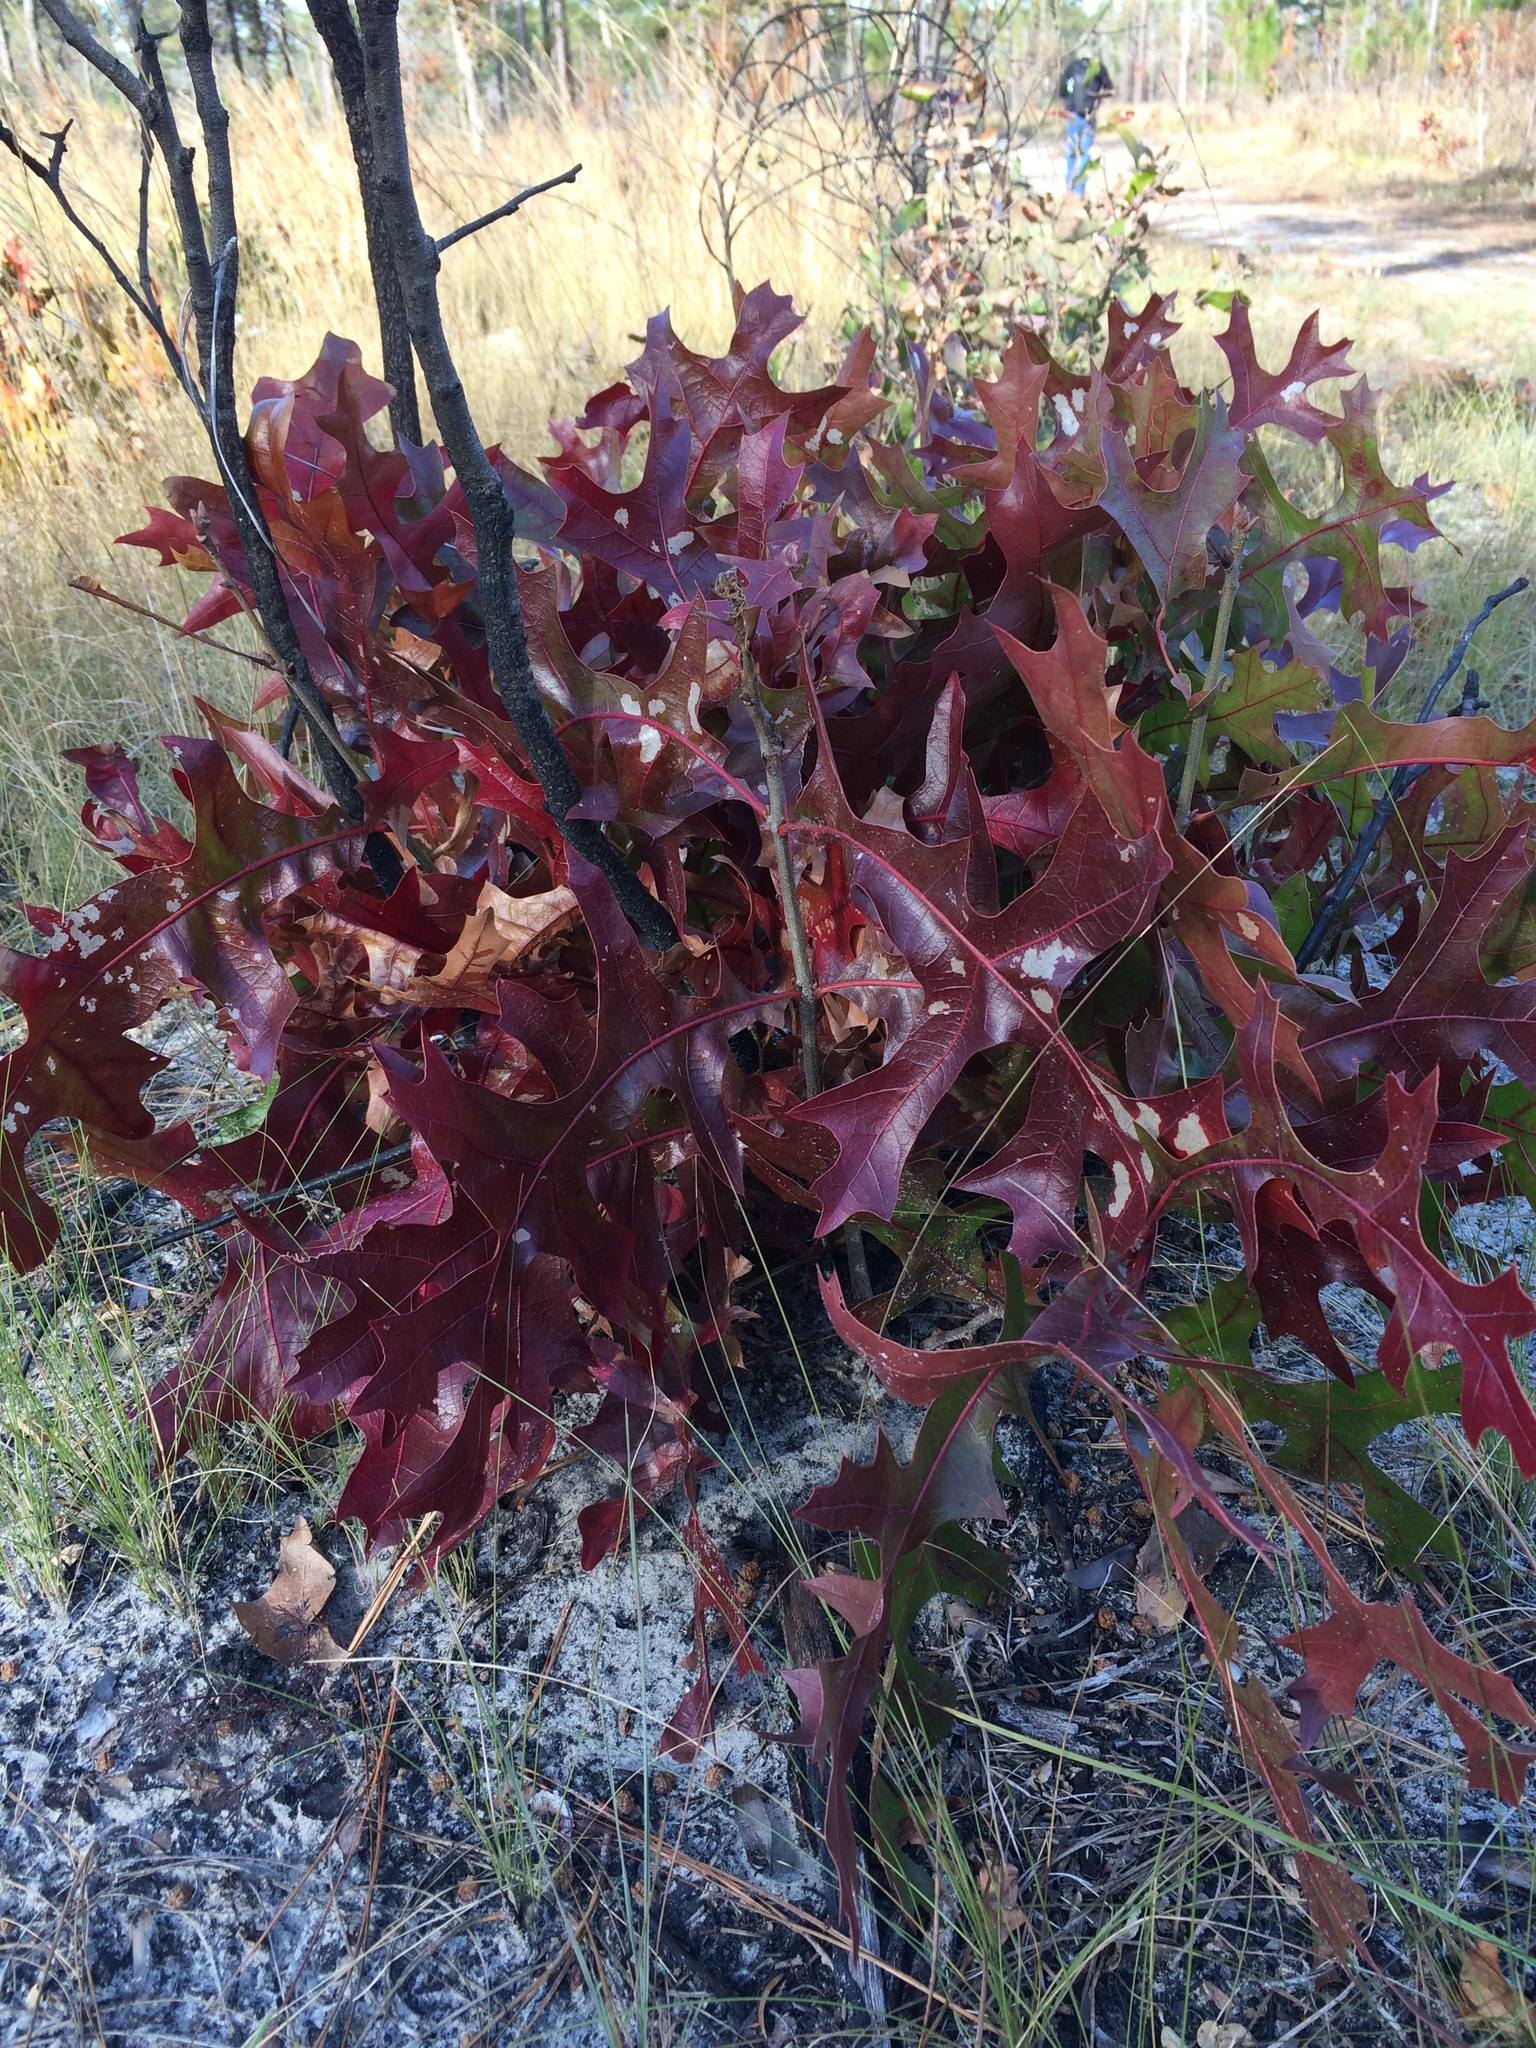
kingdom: Plantae
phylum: Tracheophyta
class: Magnoliopsida
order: Fagales
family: Fagaceae
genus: Quercus
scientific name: Quercus laevis
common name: Turkey oak
